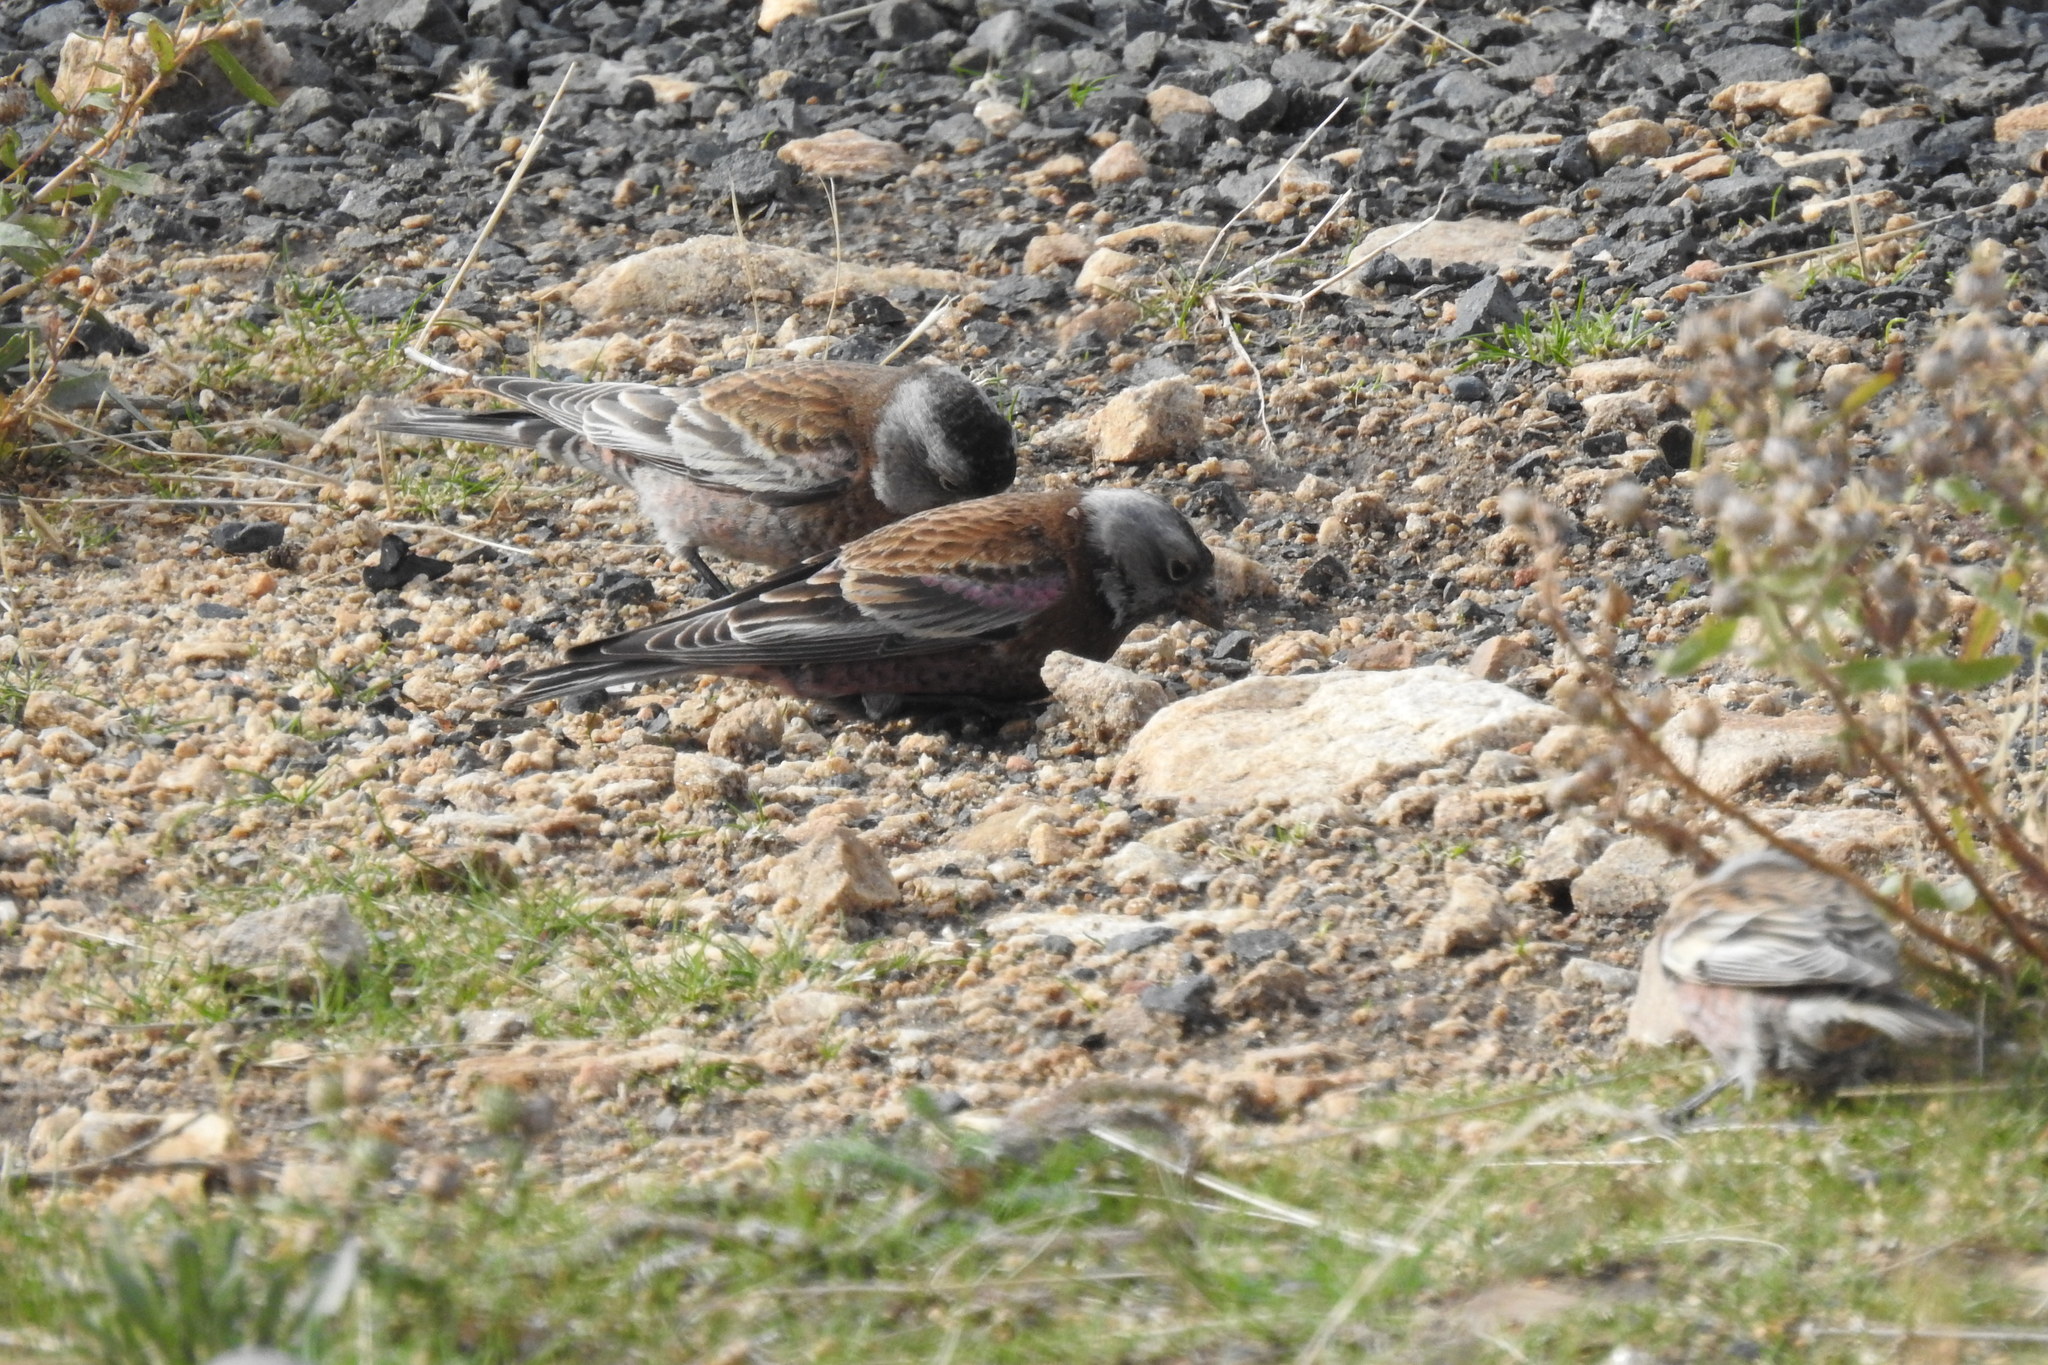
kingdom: Animalia
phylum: Chordata
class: Aves
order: Passeriformes
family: Fringillidae
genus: Leucosticte
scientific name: Leucosticte tephrocotis
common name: Gray-crowned rosy-finch
